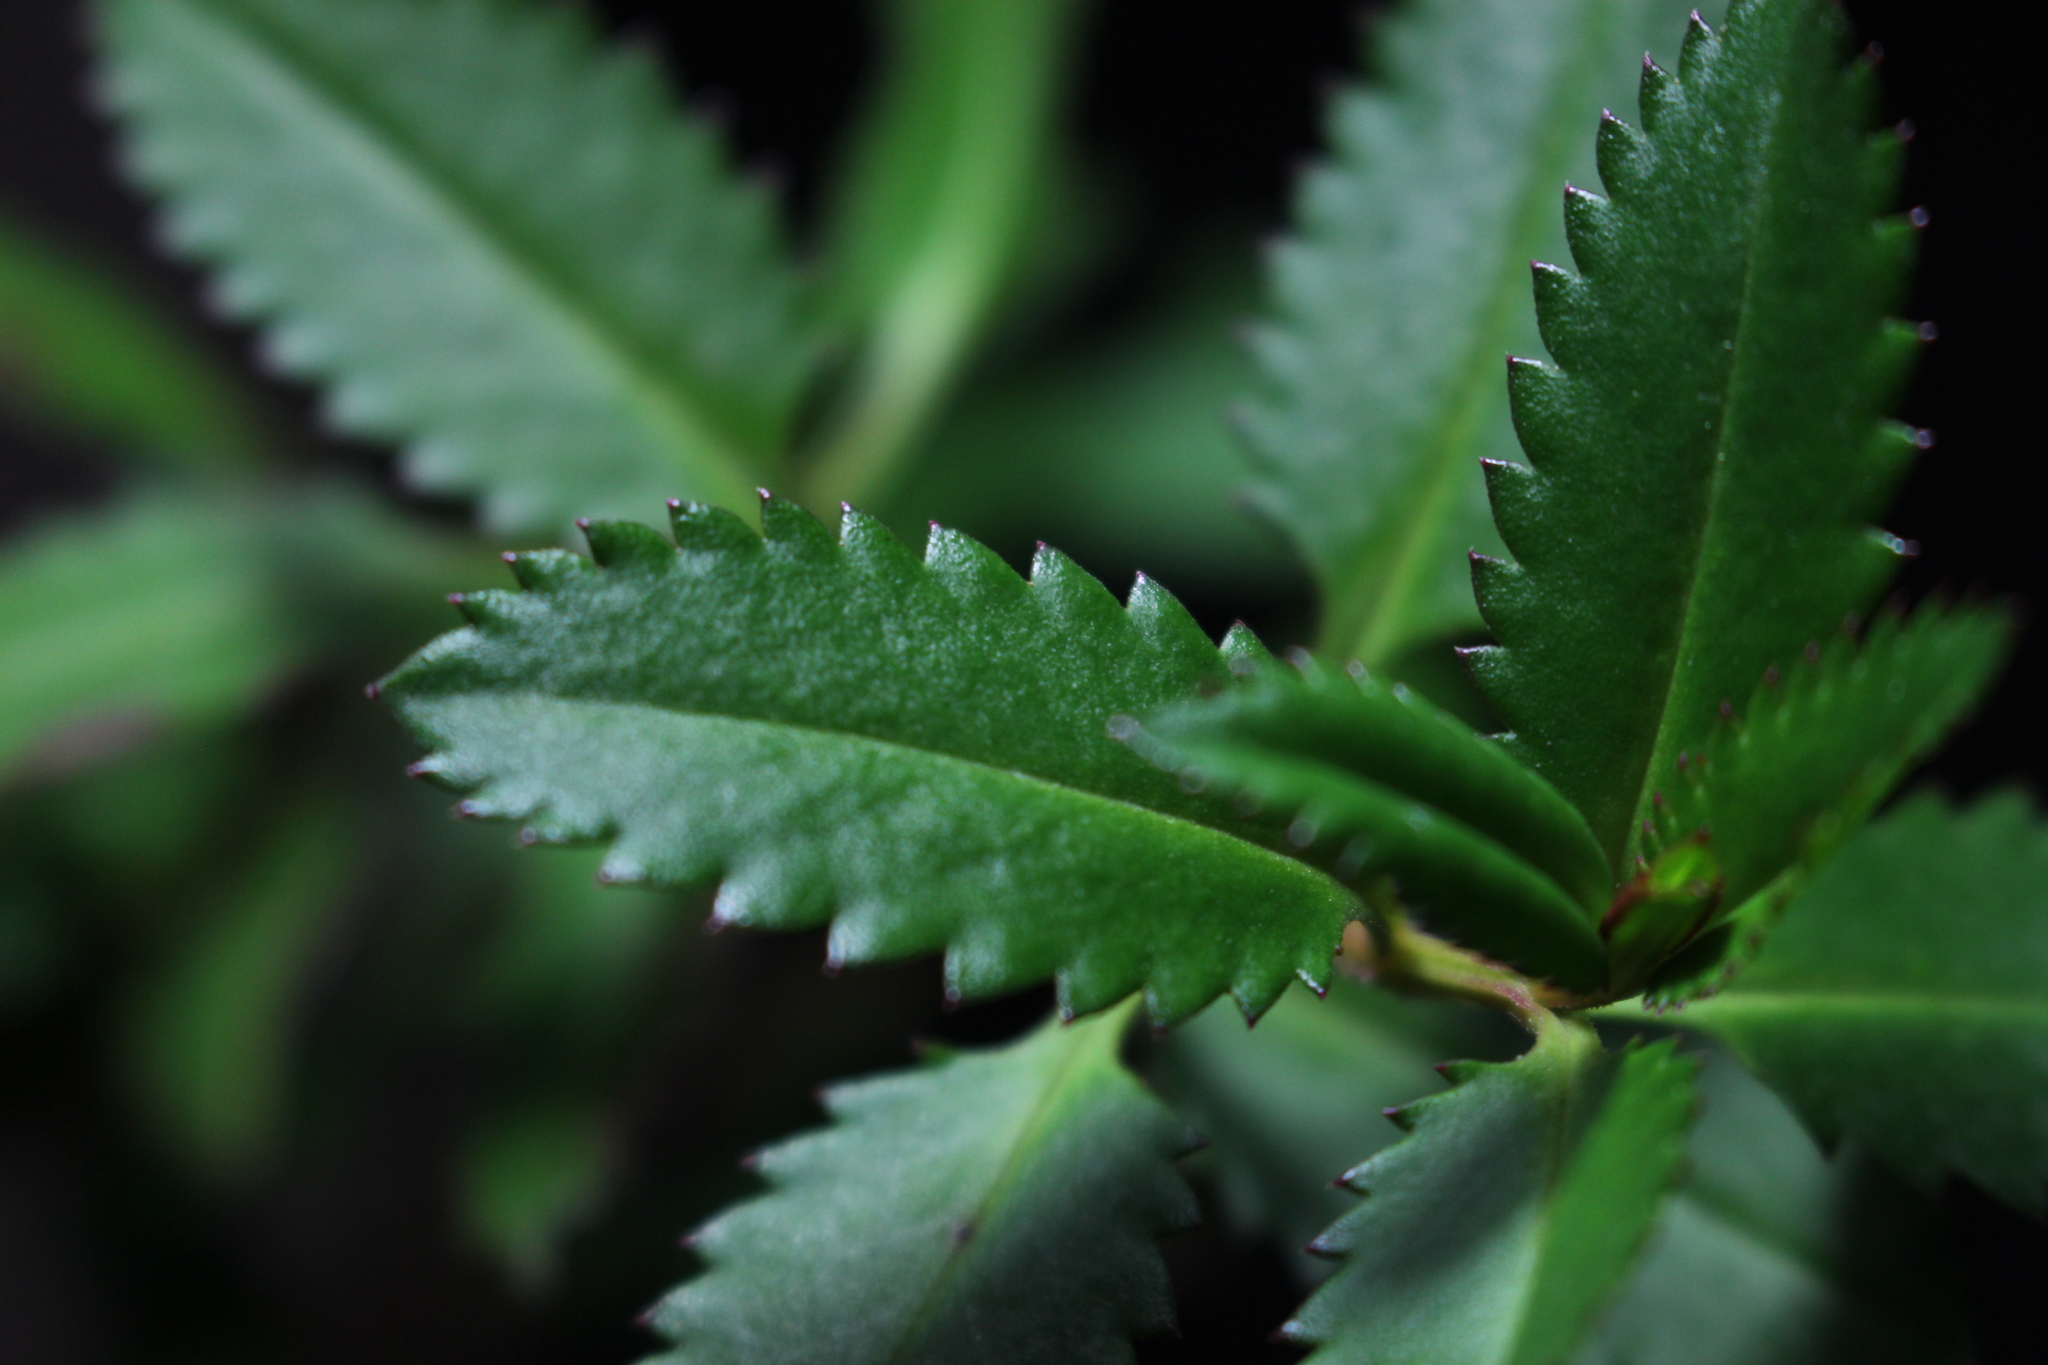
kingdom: Plantae
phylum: Tracheophyta
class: Magnoliopsida
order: Saxifragales
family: Haloragaceae
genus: Haloragis
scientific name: Haloragis erecta
